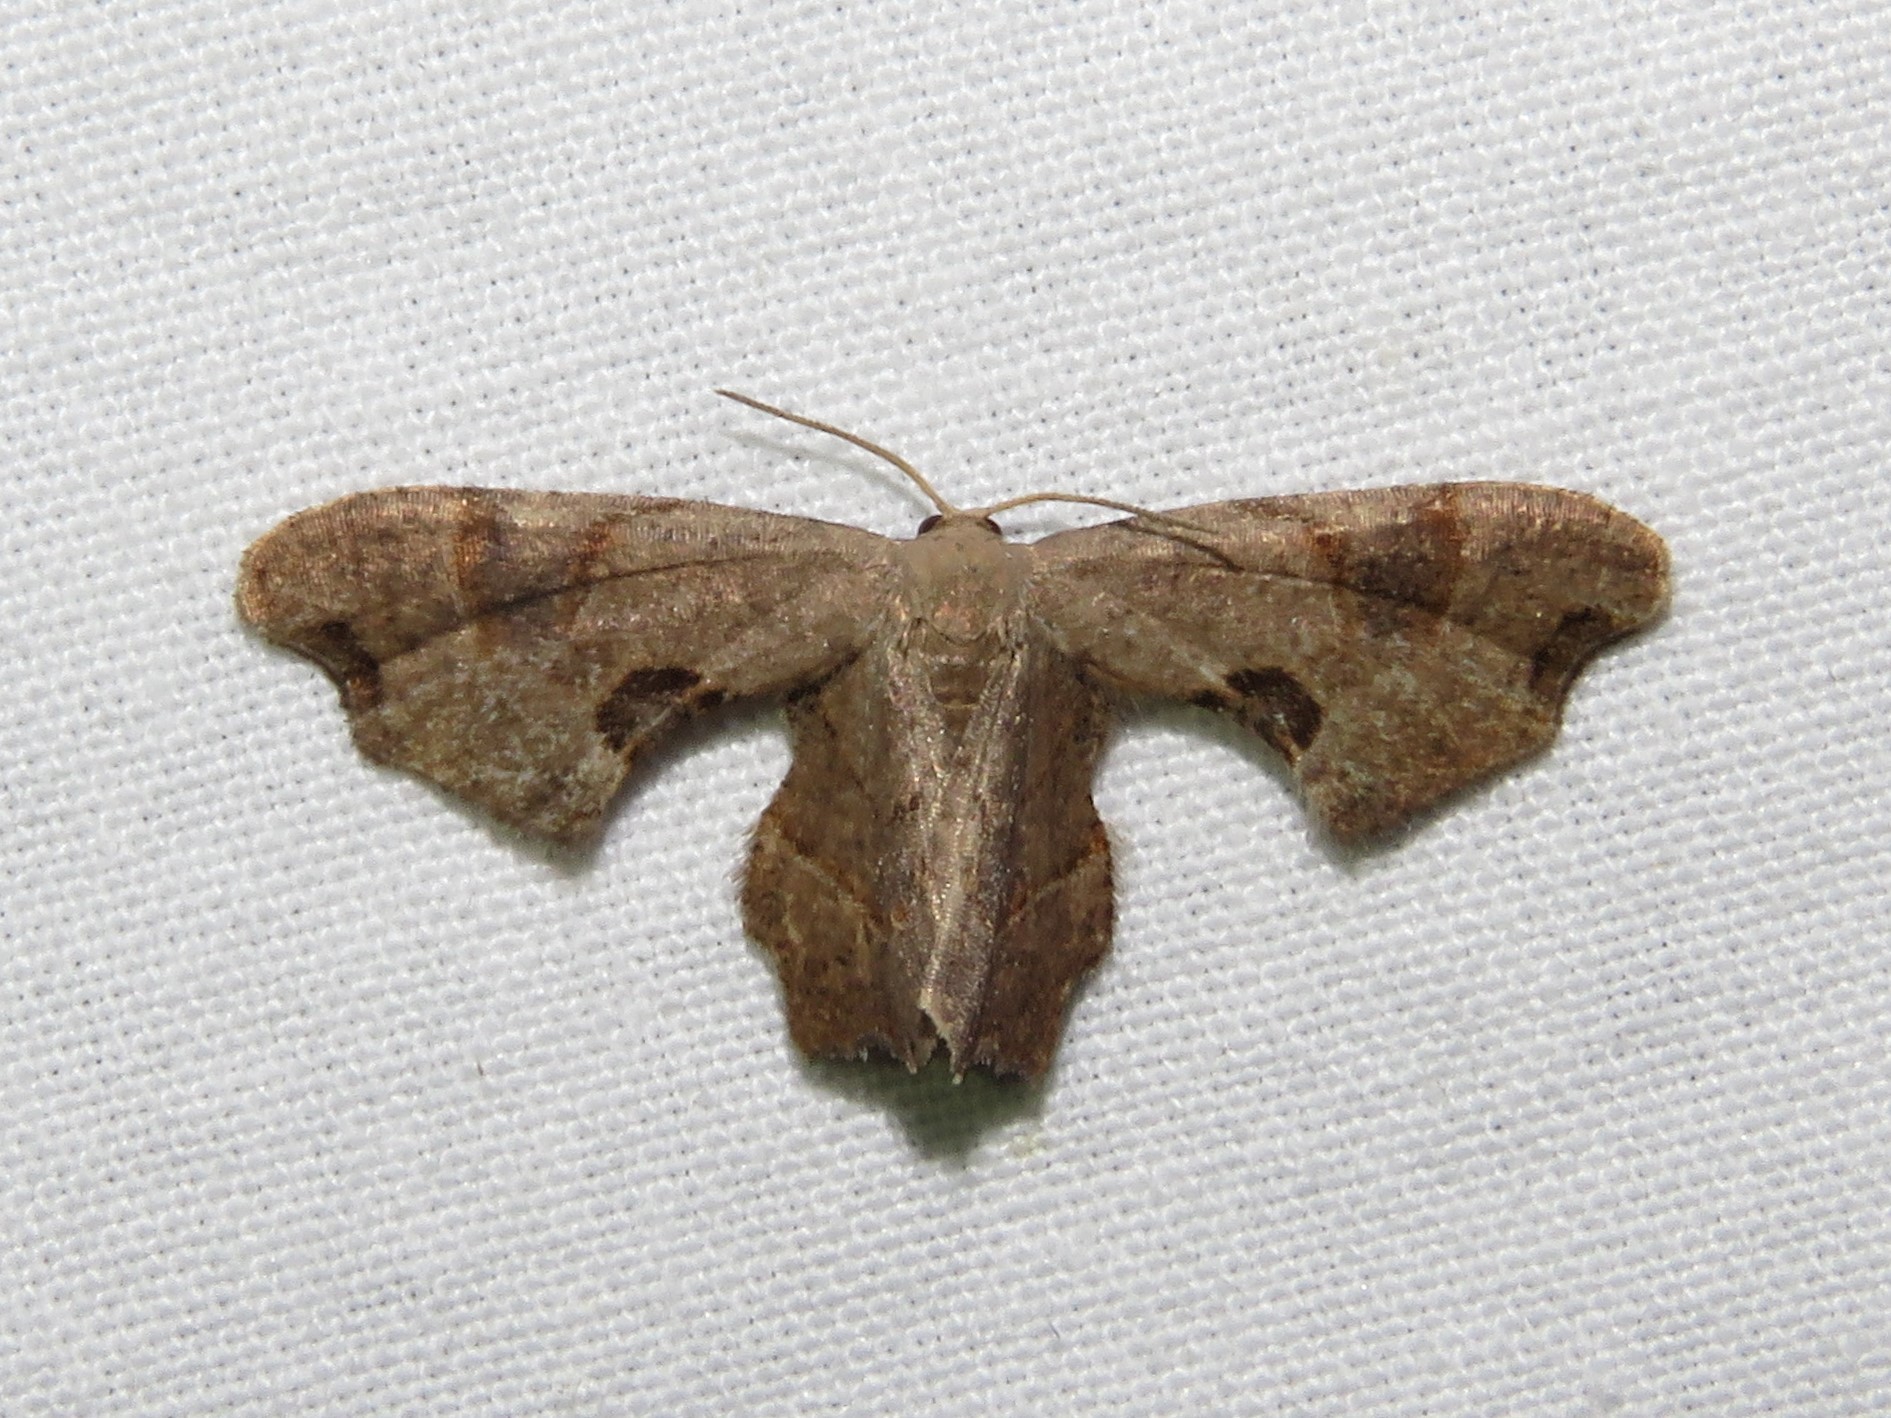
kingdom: Animalia
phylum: Arthropoda
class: Insecta
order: Lepidoptera
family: Uraniidae
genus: Epiplema
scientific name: Epiplema Calledapteryx dryopterata
